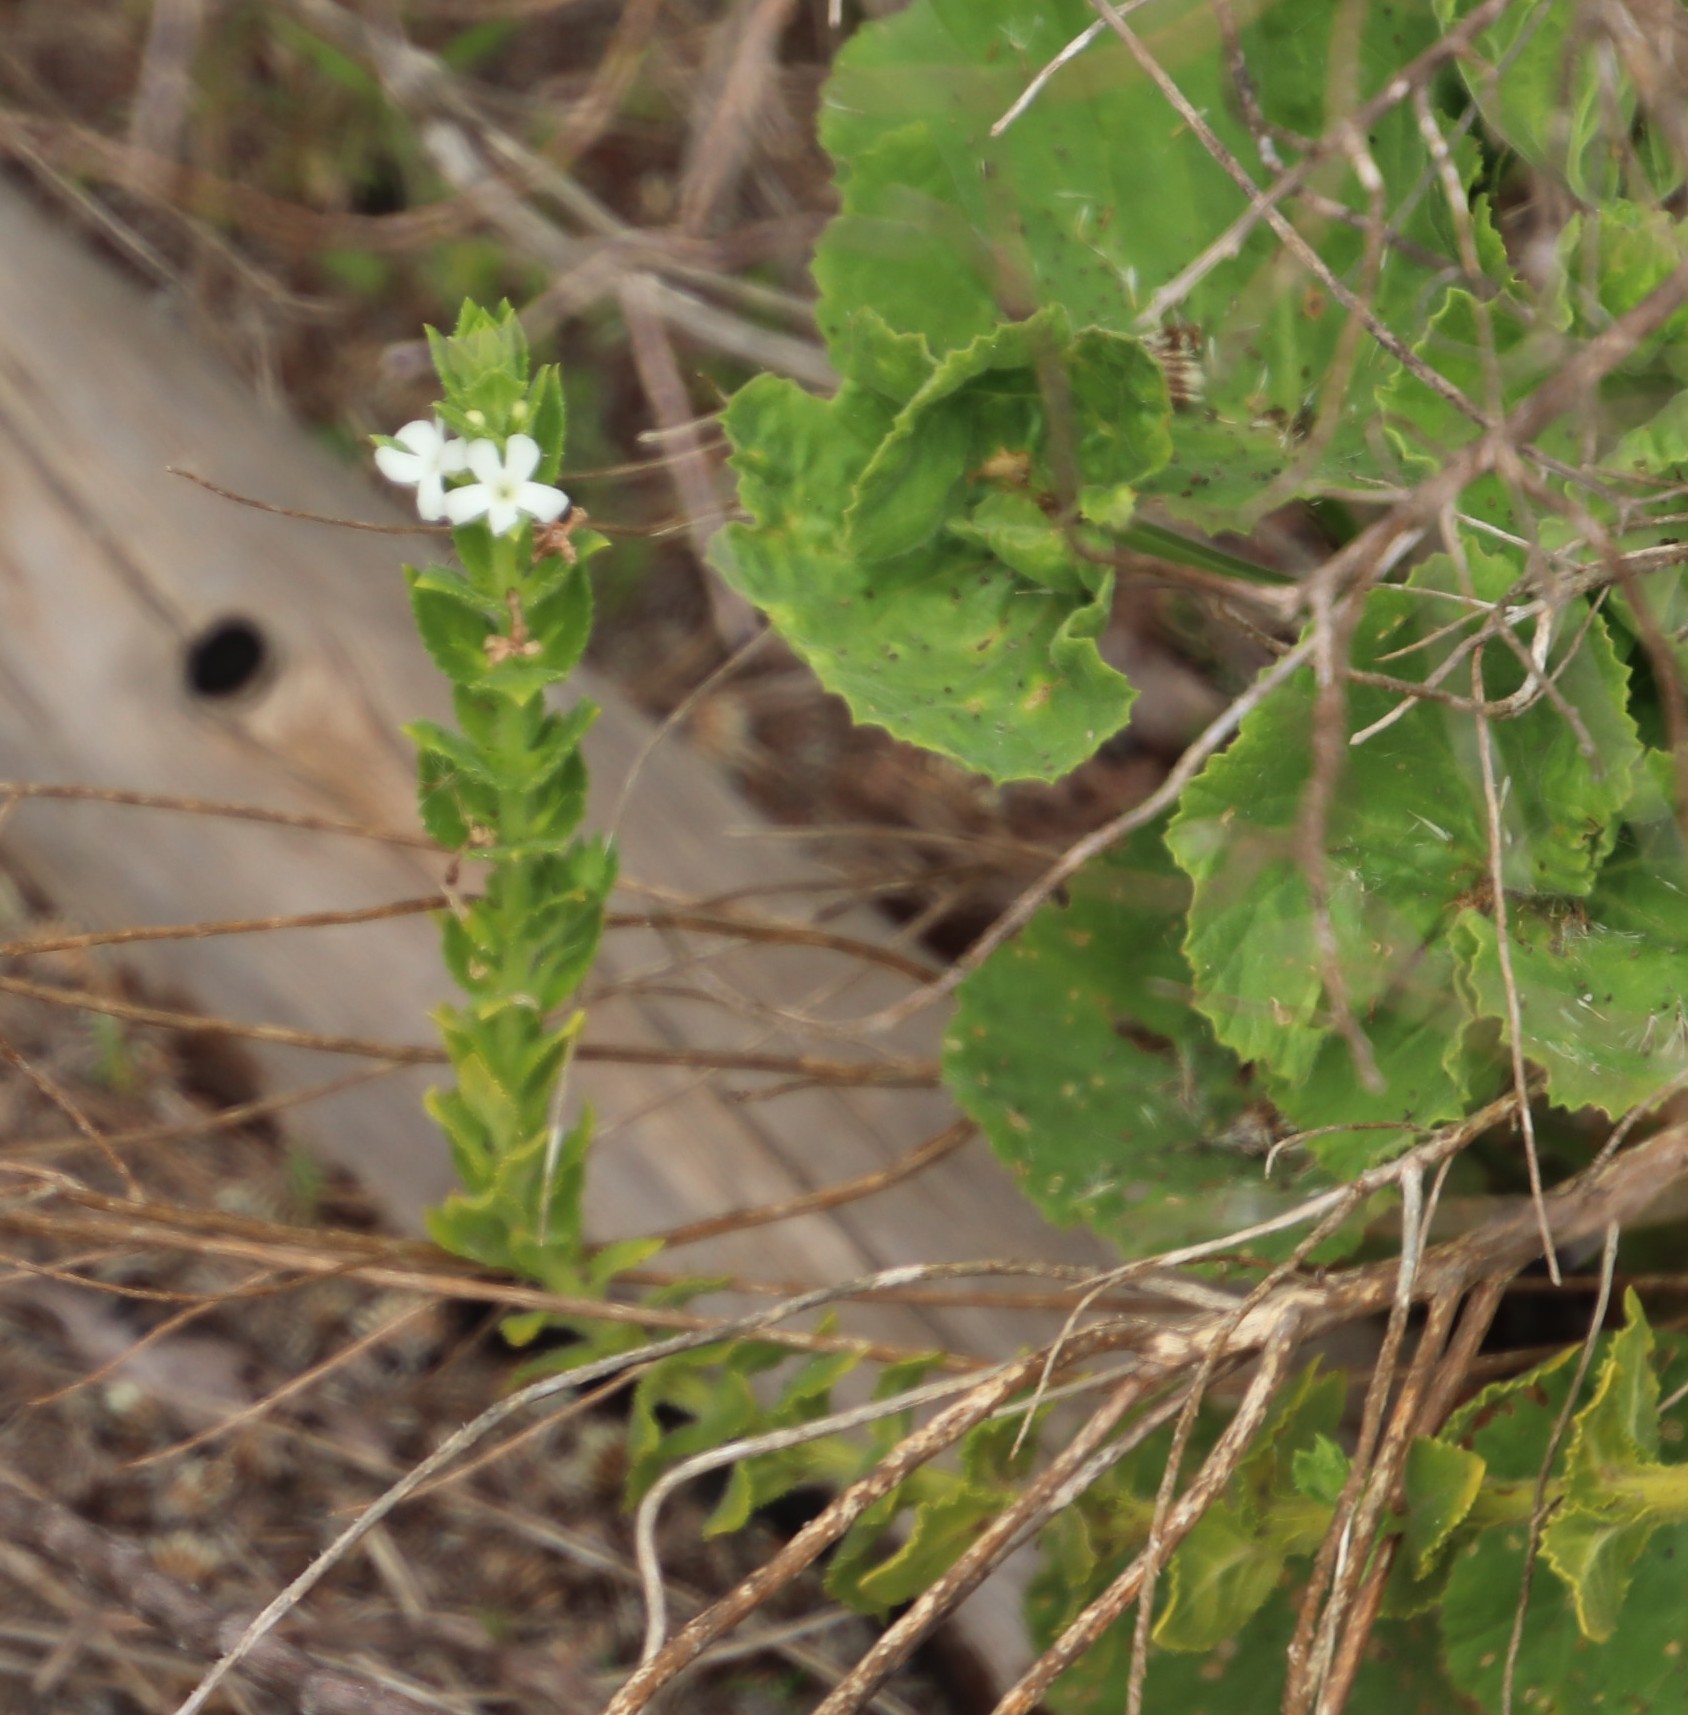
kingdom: Plantae
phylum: Tracheophyta
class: Magnoliopsida
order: Lamiales
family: Scrophulariaceae
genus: Oftia
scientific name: Oftia africana
